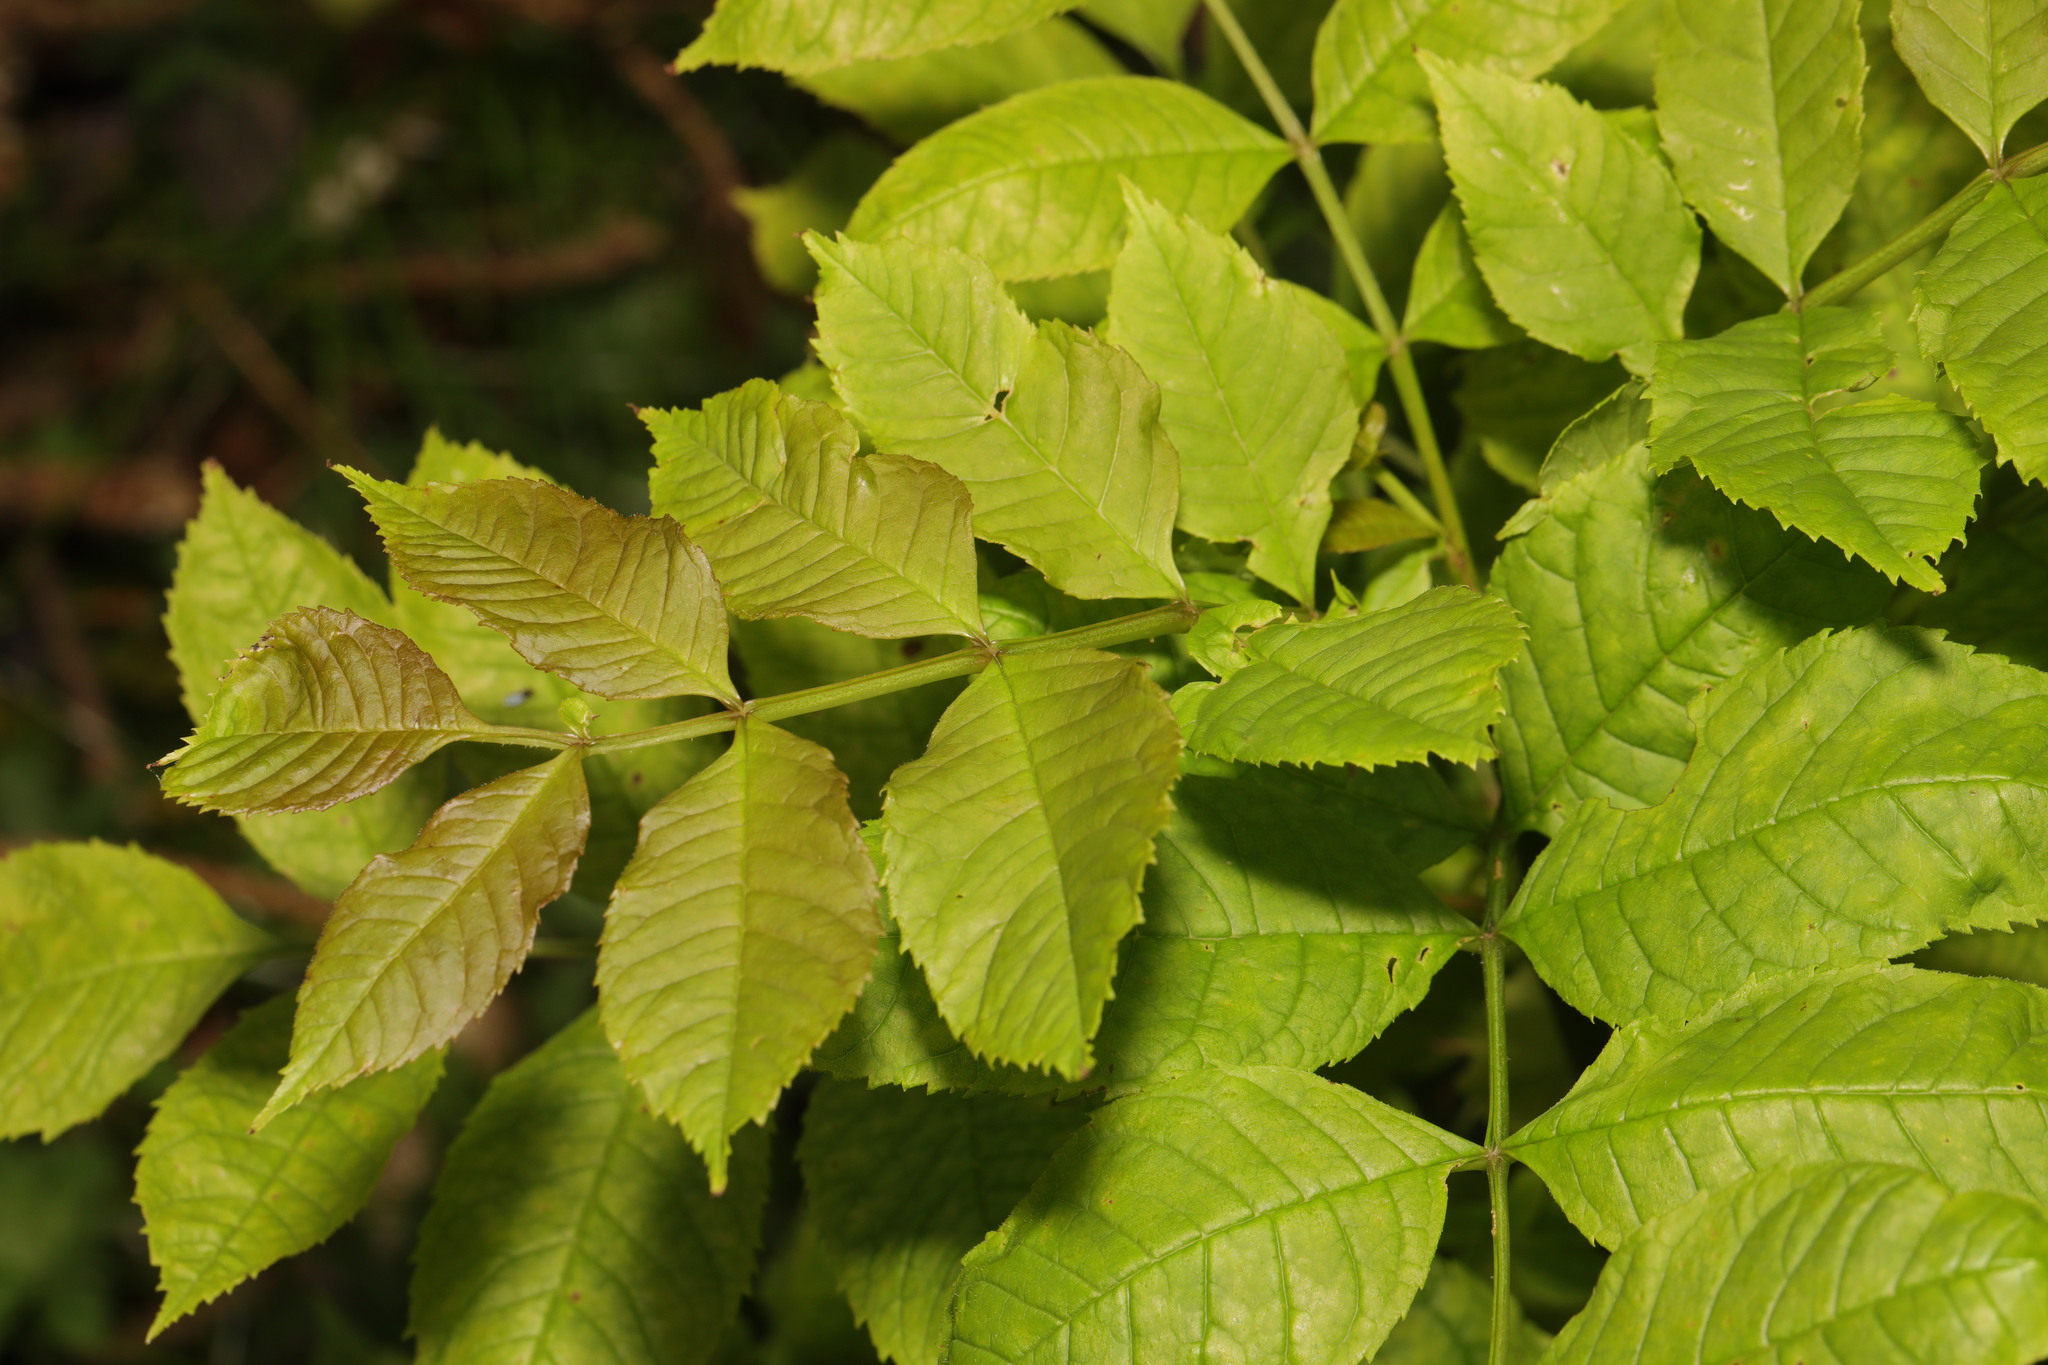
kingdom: Plantae
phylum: Tracheophyta
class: Magnoliopsida
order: Lamiales
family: Oleaceae
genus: Fraxinus
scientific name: Fraxinus excelsior
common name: European ash
